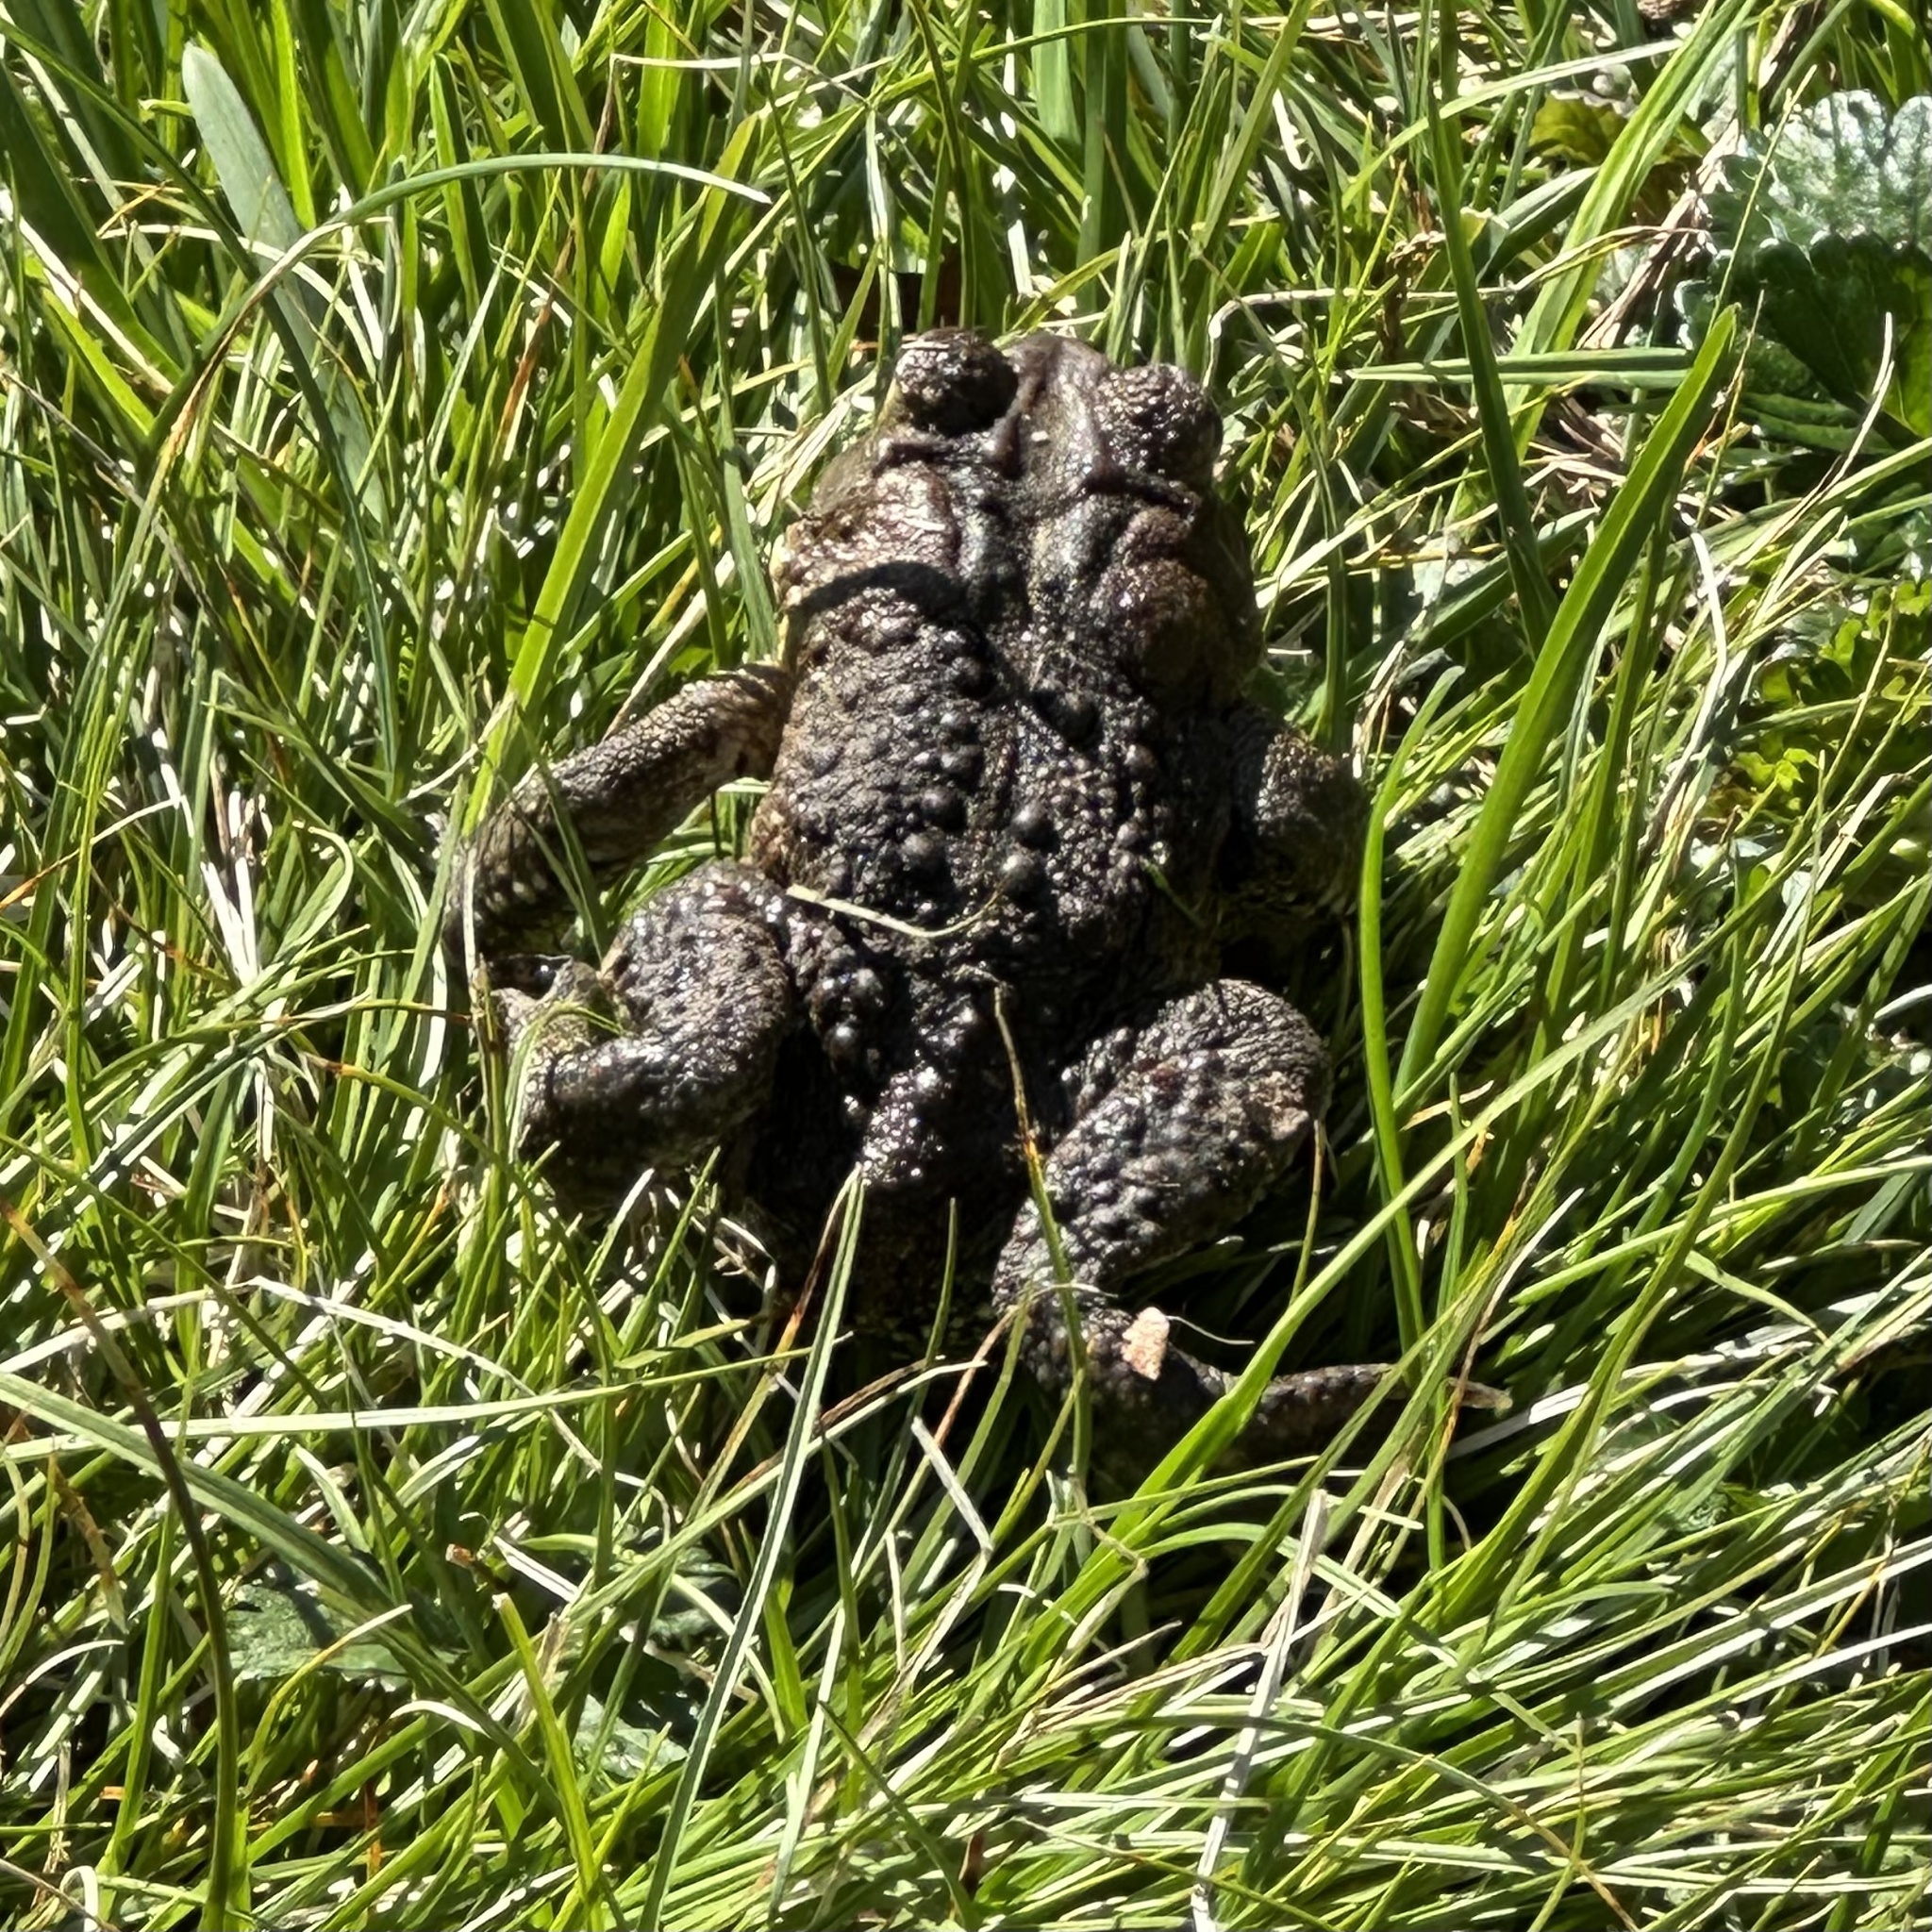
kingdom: Animalia
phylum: Chordata
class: Amphibia
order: Anura
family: Bufonidae
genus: Anaxyrus
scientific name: Anaxyrus americanus
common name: American toad
